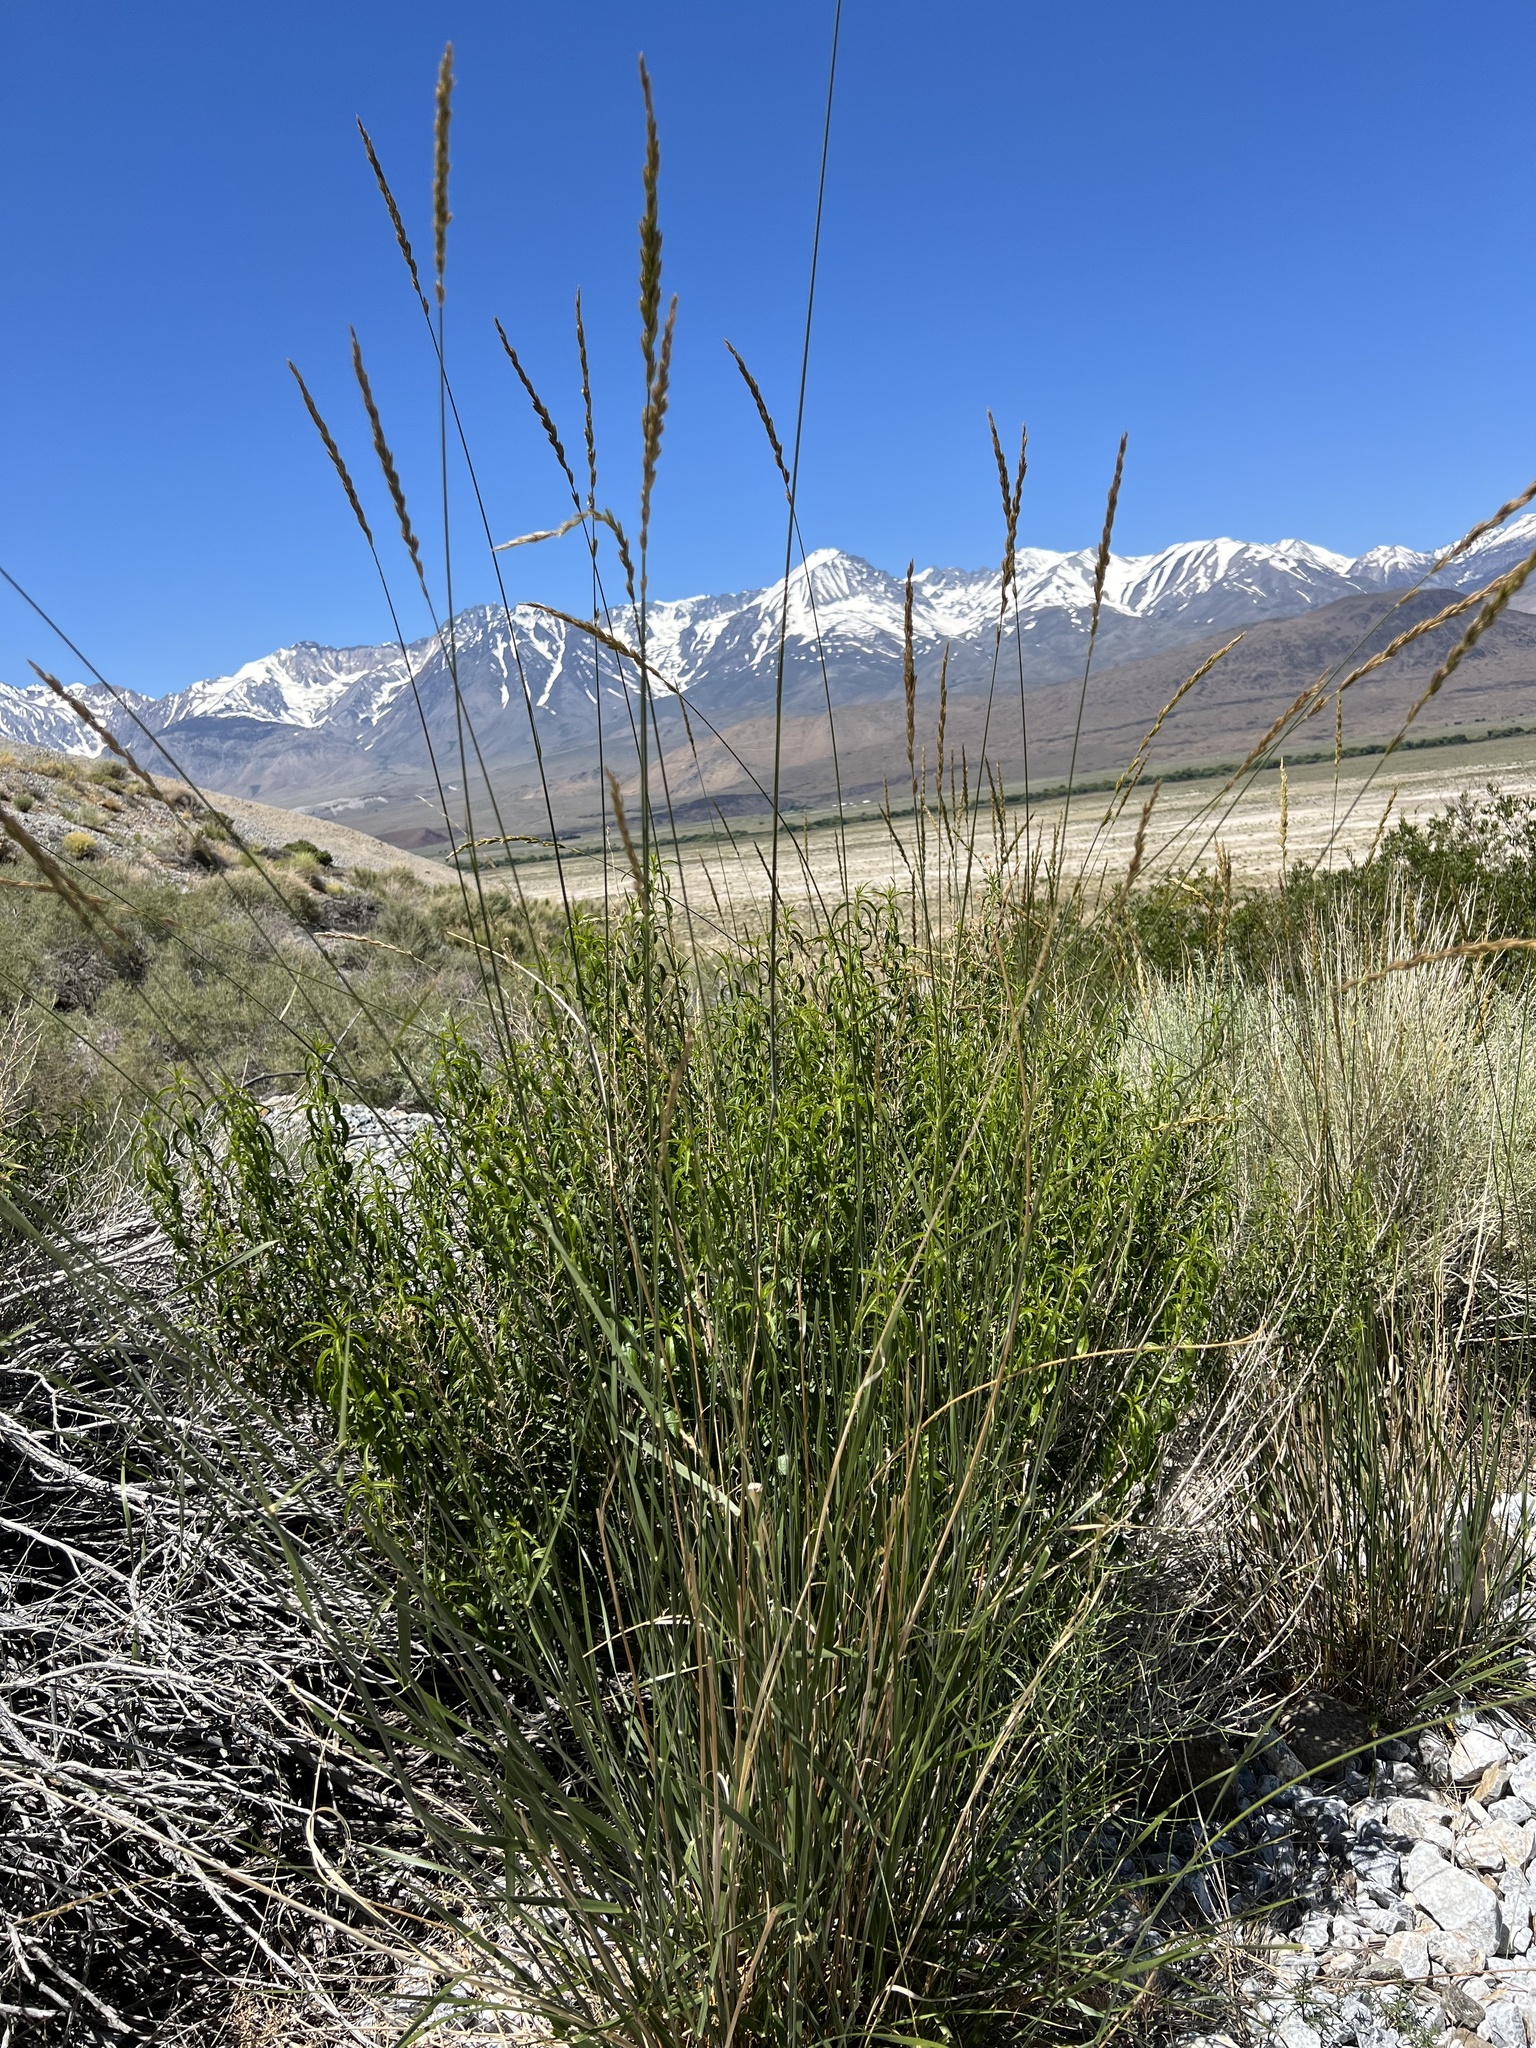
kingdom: Plantae
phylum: Tracheophyta
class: Liliopsida
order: Poales
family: Poaceae
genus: Leymus
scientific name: Leymus cinereus
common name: Basin wild rye
